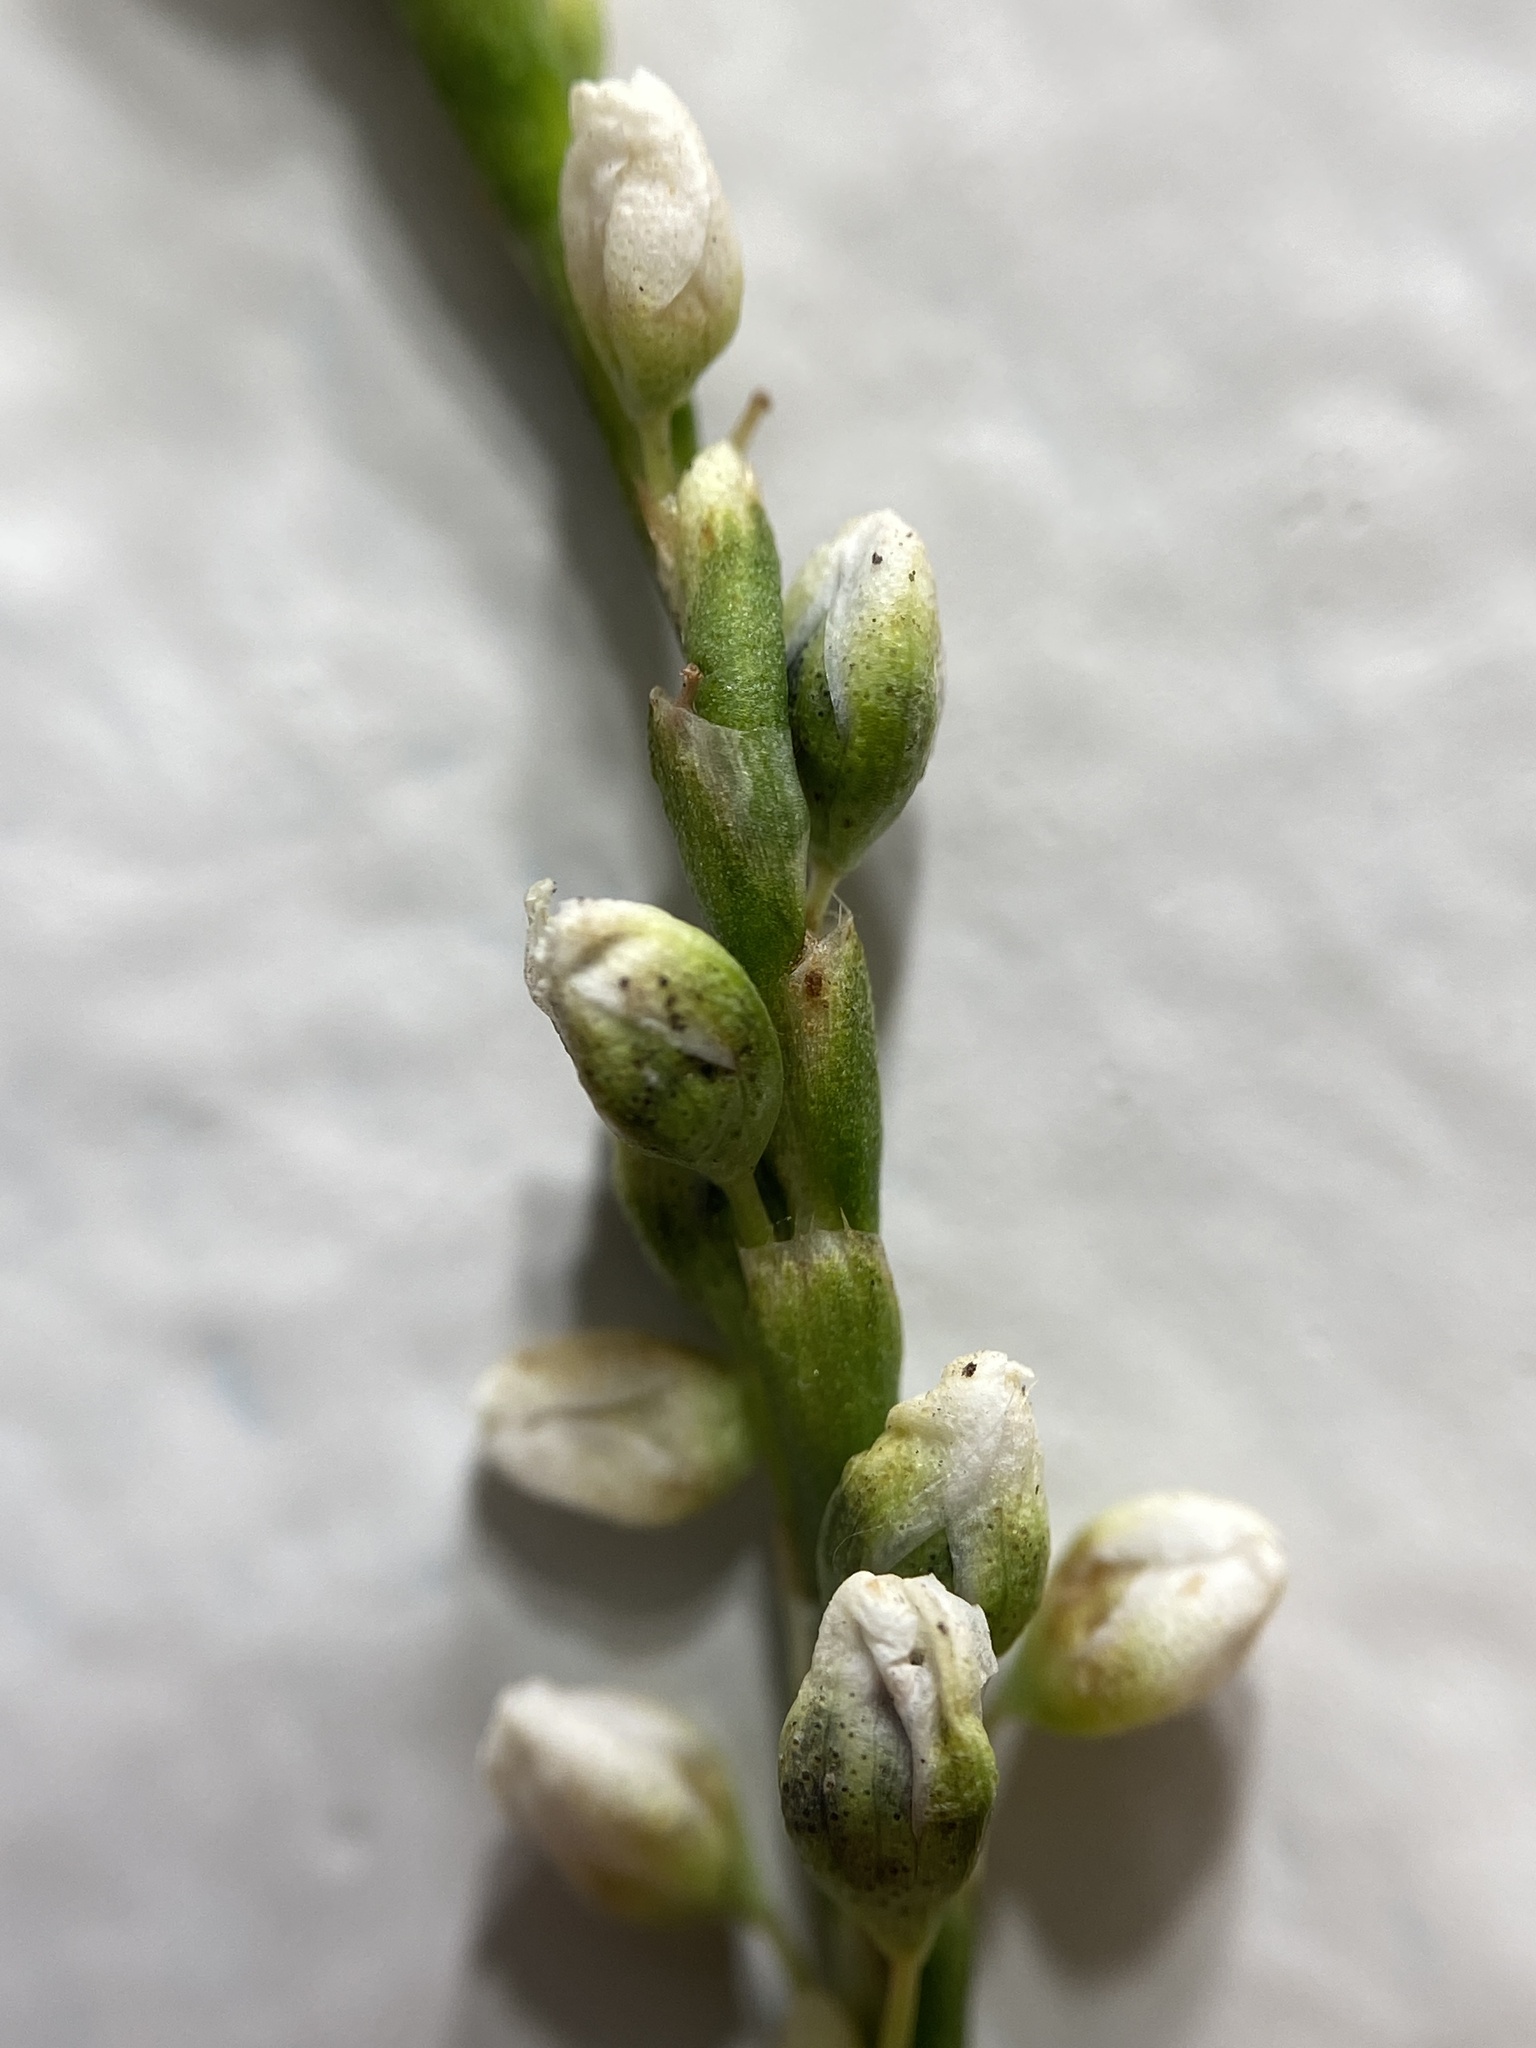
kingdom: Plantae
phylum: Tracheophyta
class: Magnoliopsida
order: Caryophyllales
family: Polygonaceae
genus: Persicaria
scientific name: Persicaria robustior
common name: Stout smartweed
